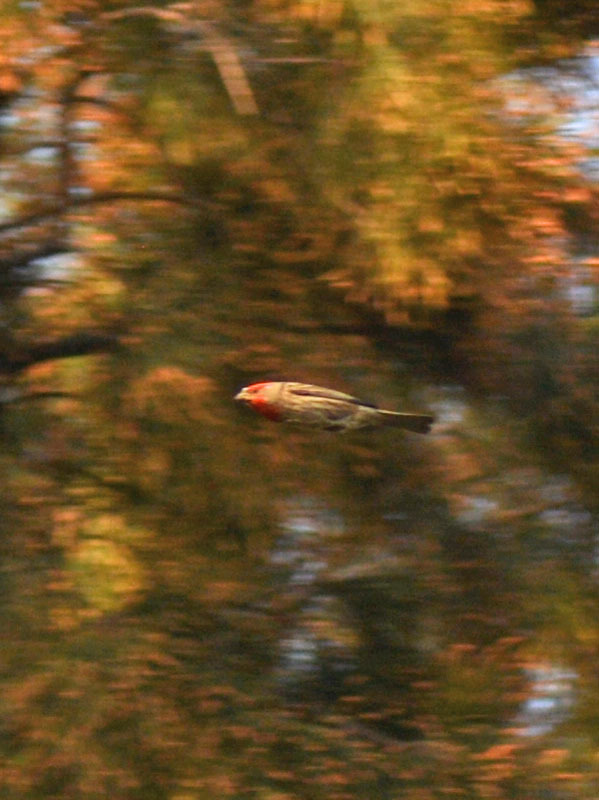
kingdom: Animalia
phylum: Chordata
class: Aves
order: Passeriformes
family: Fringillidae
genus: Haemorhous
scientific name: Haemorhous mexicanus
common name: House finch
